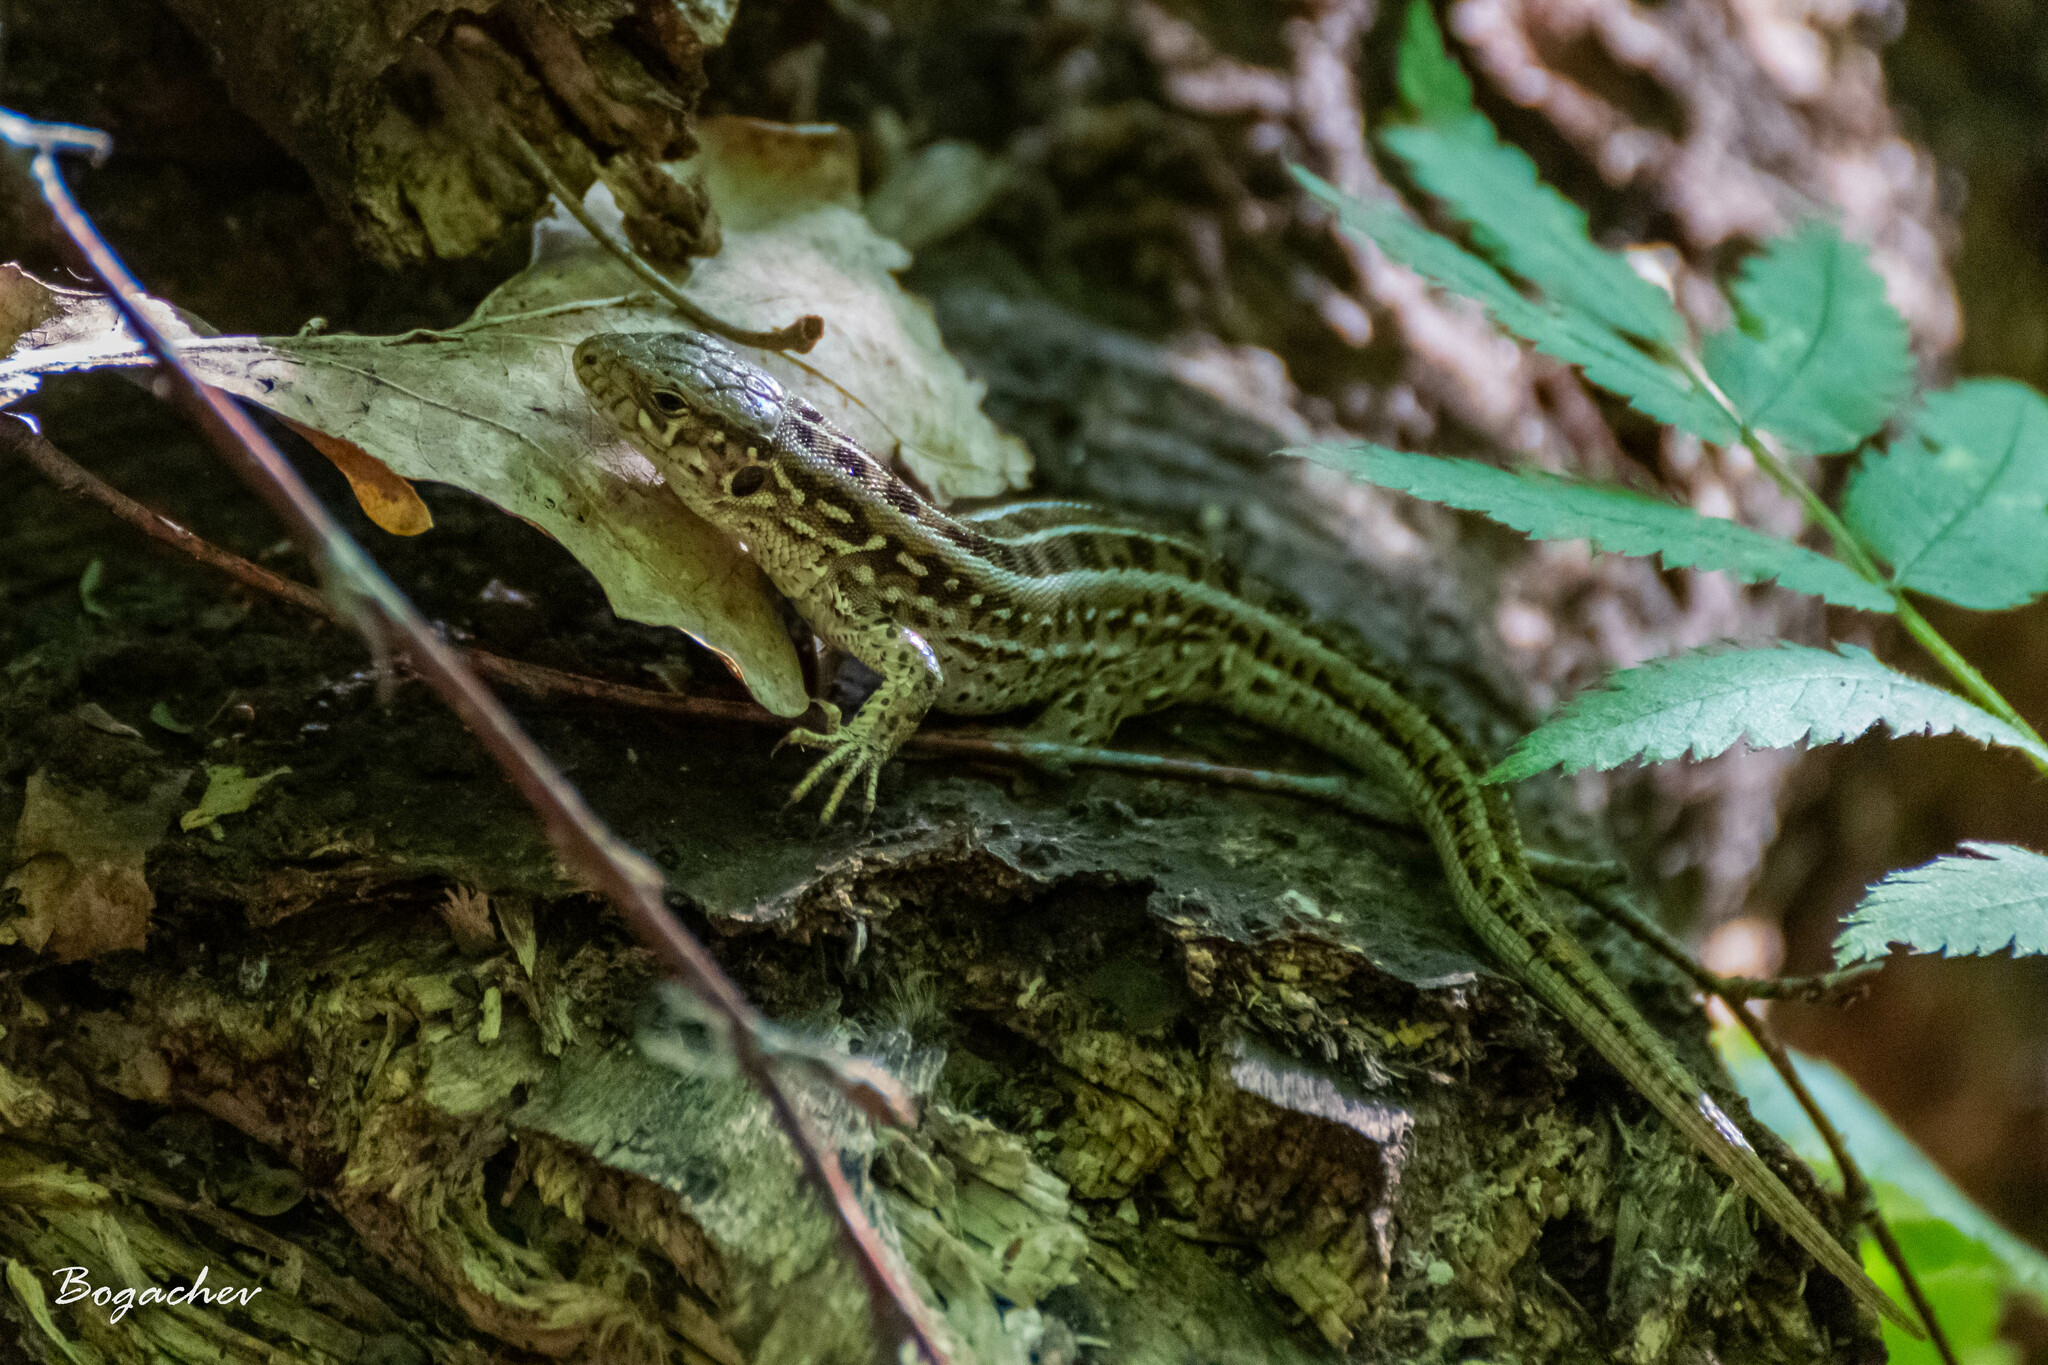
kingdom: Animalia
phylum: Chordata
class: Squamata
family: Lacertidae
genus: Lacerta
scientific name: Lacerta agilis
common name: Sand lizard
